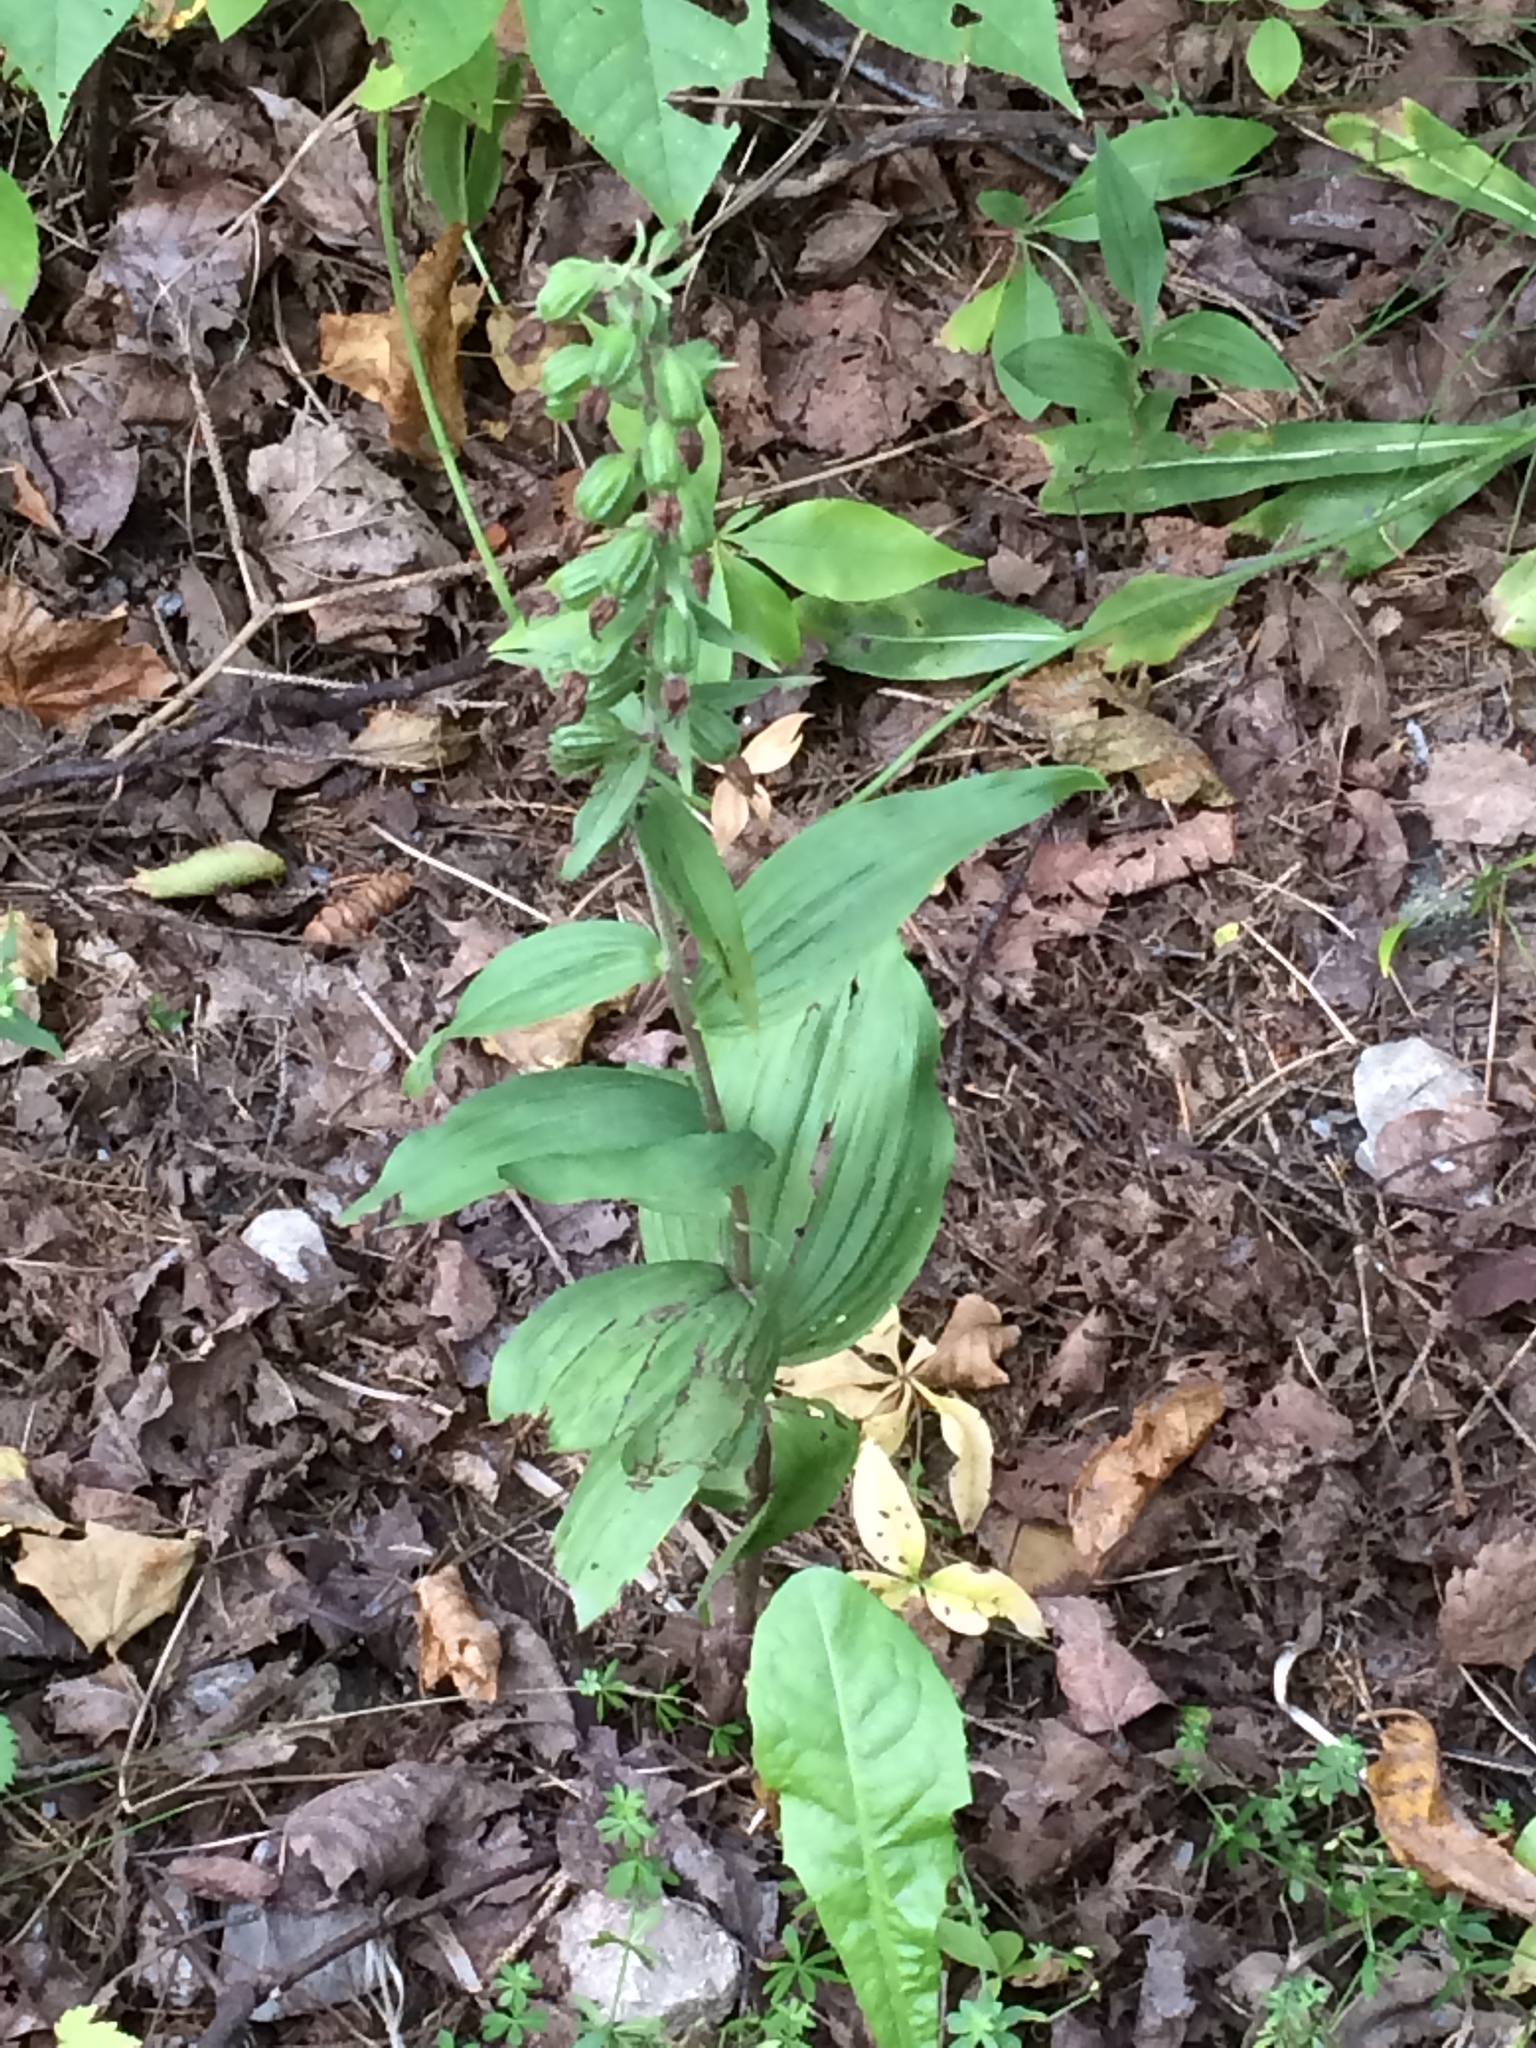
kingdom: Plantae
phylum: Tracheophyta
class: Liliopsida
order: Asparagales
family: Orchidaceae
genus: Epipactis
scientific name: Epipactis helleborine
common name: Broad-leaved helleborine
